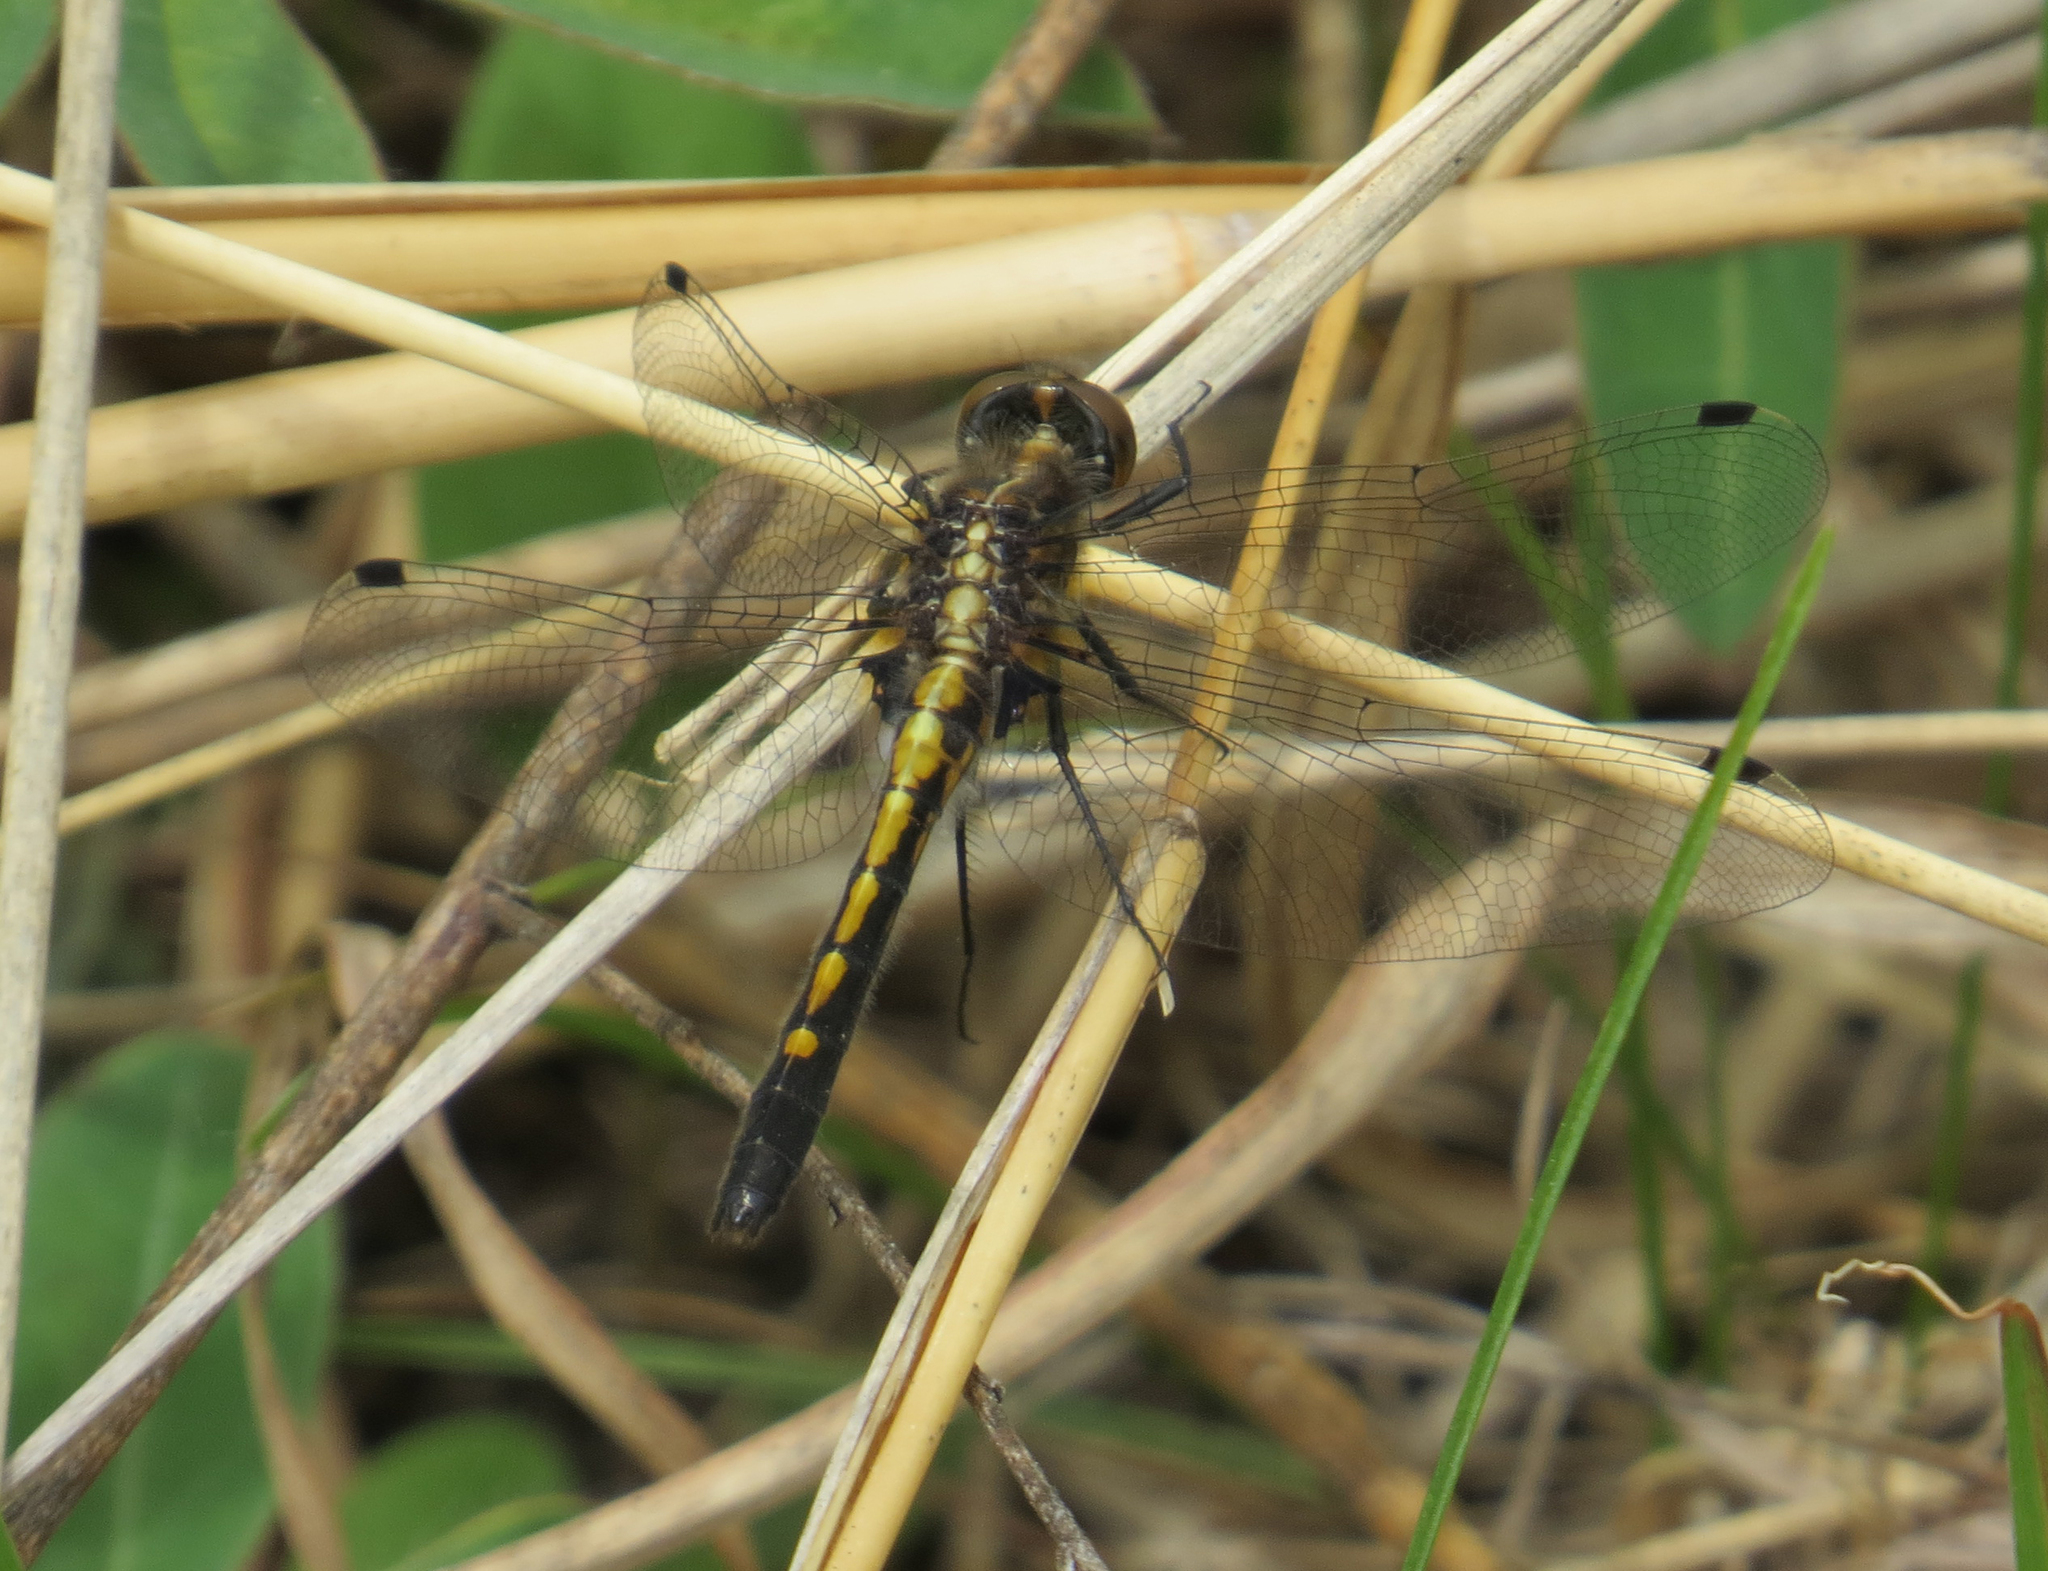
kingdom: Animalia
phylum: Arthropoda
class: Insecta
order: Odonata
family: Libellulidae
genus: Leucorrhinia
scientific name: Leucorrhinia intacta
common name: Dot-tailed whiteface
